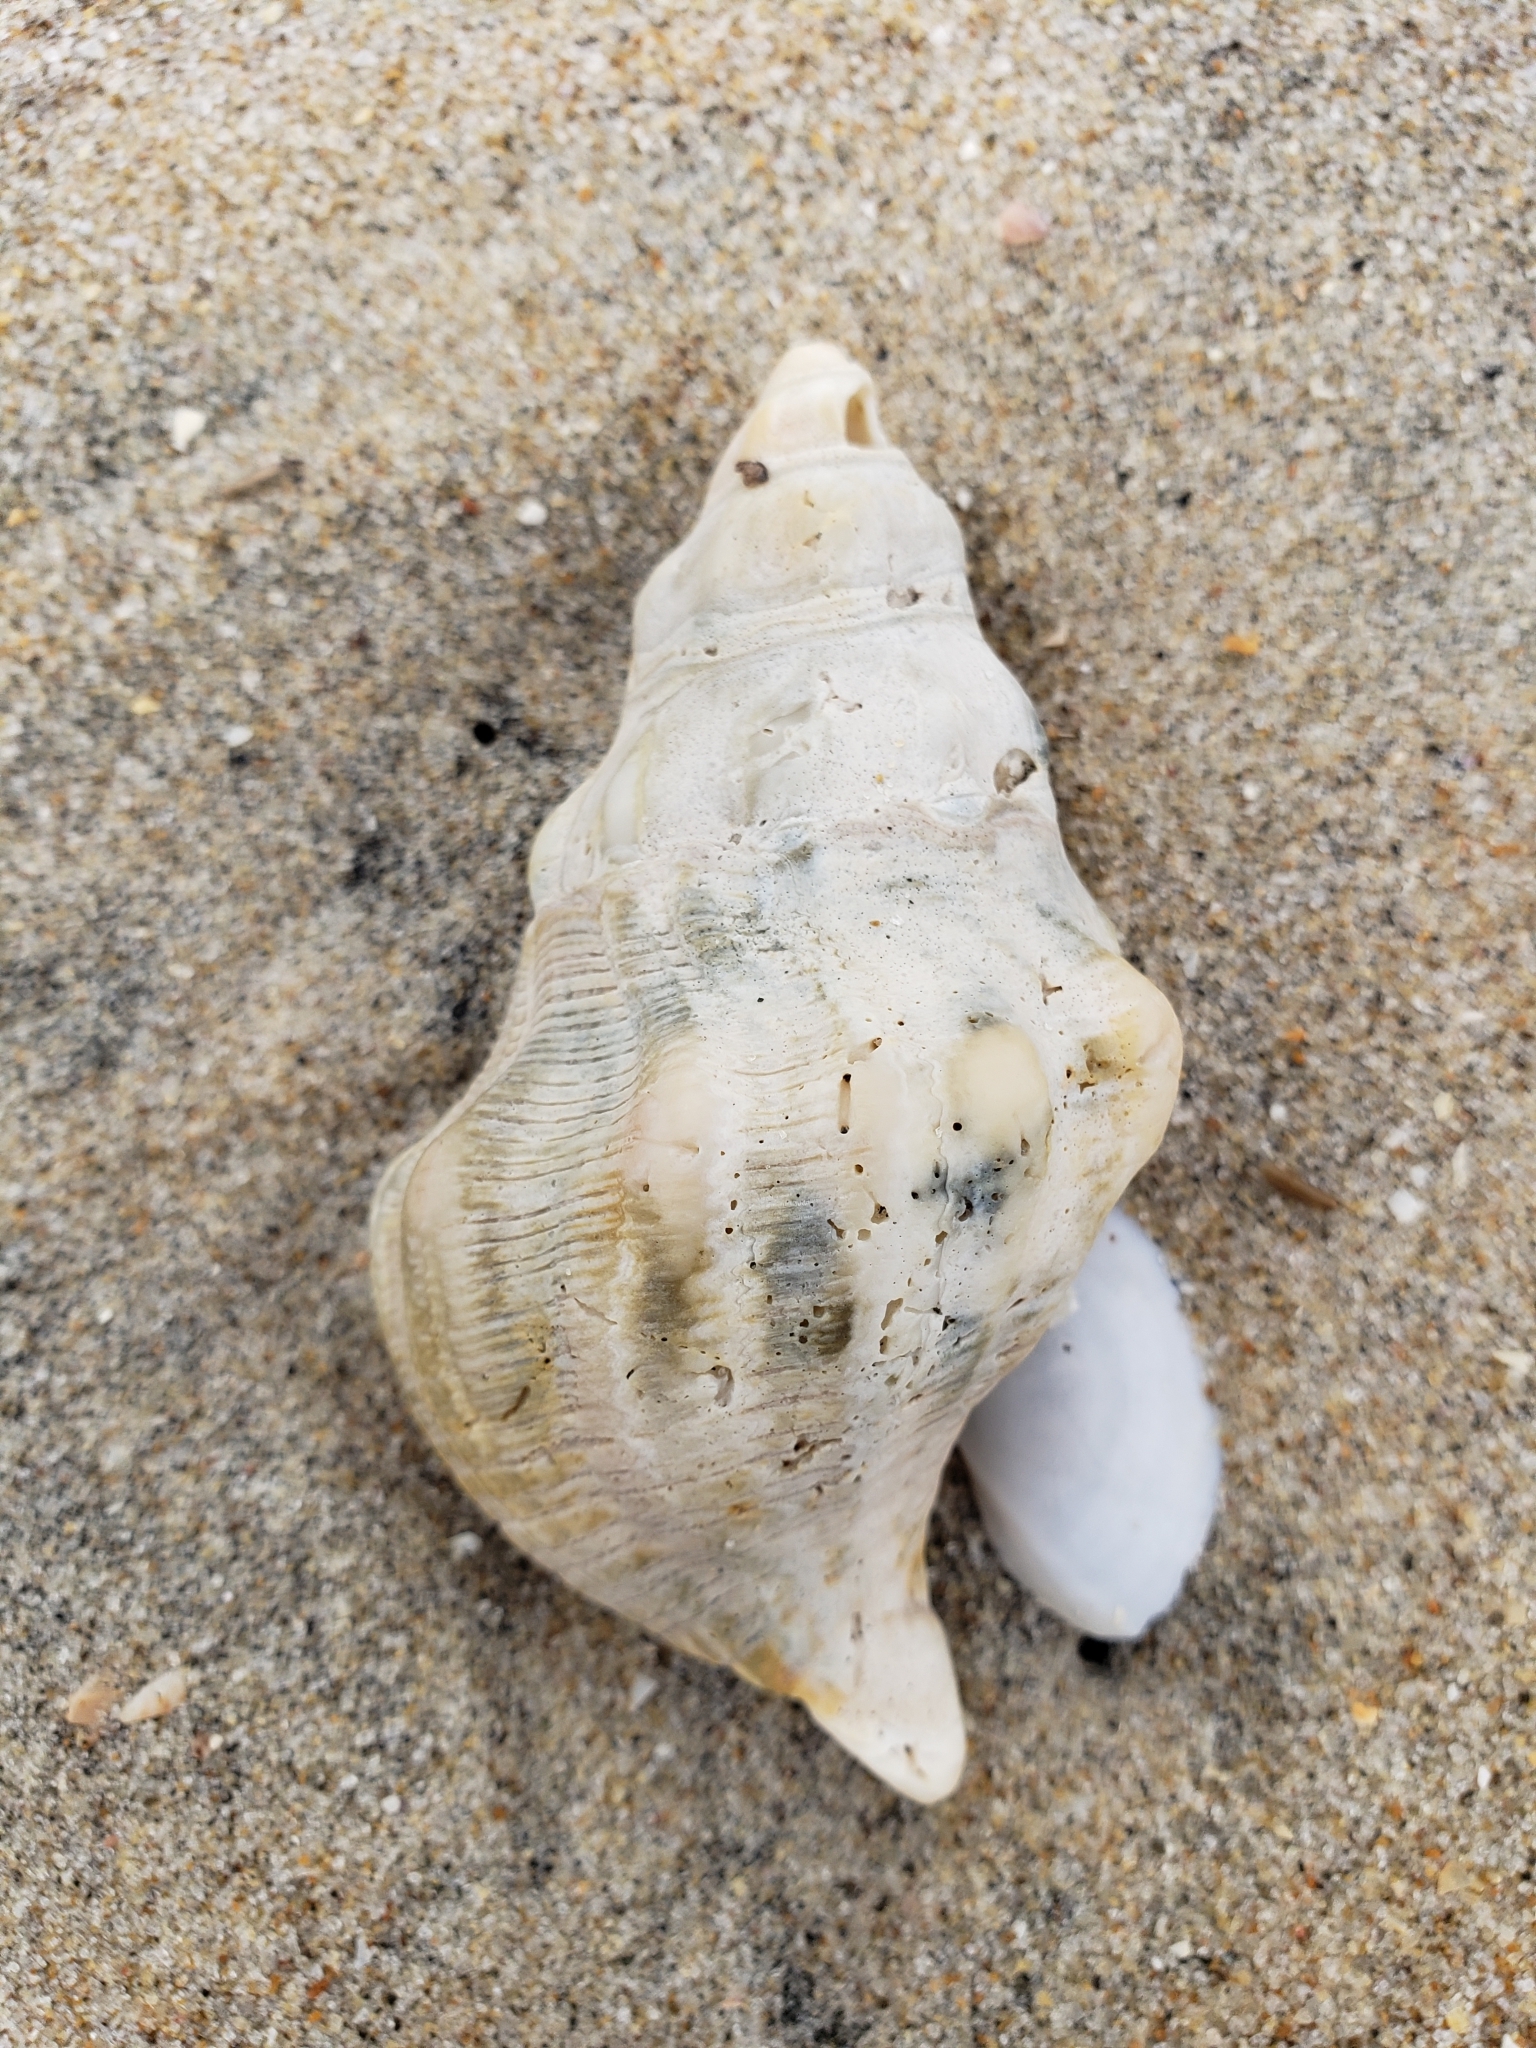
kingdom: Animalia
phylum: Mollusca
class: Gastropoda
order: Neogastropoda
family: Austrosiphonidae
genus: Kelletia
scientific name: Kelletia kelletii
